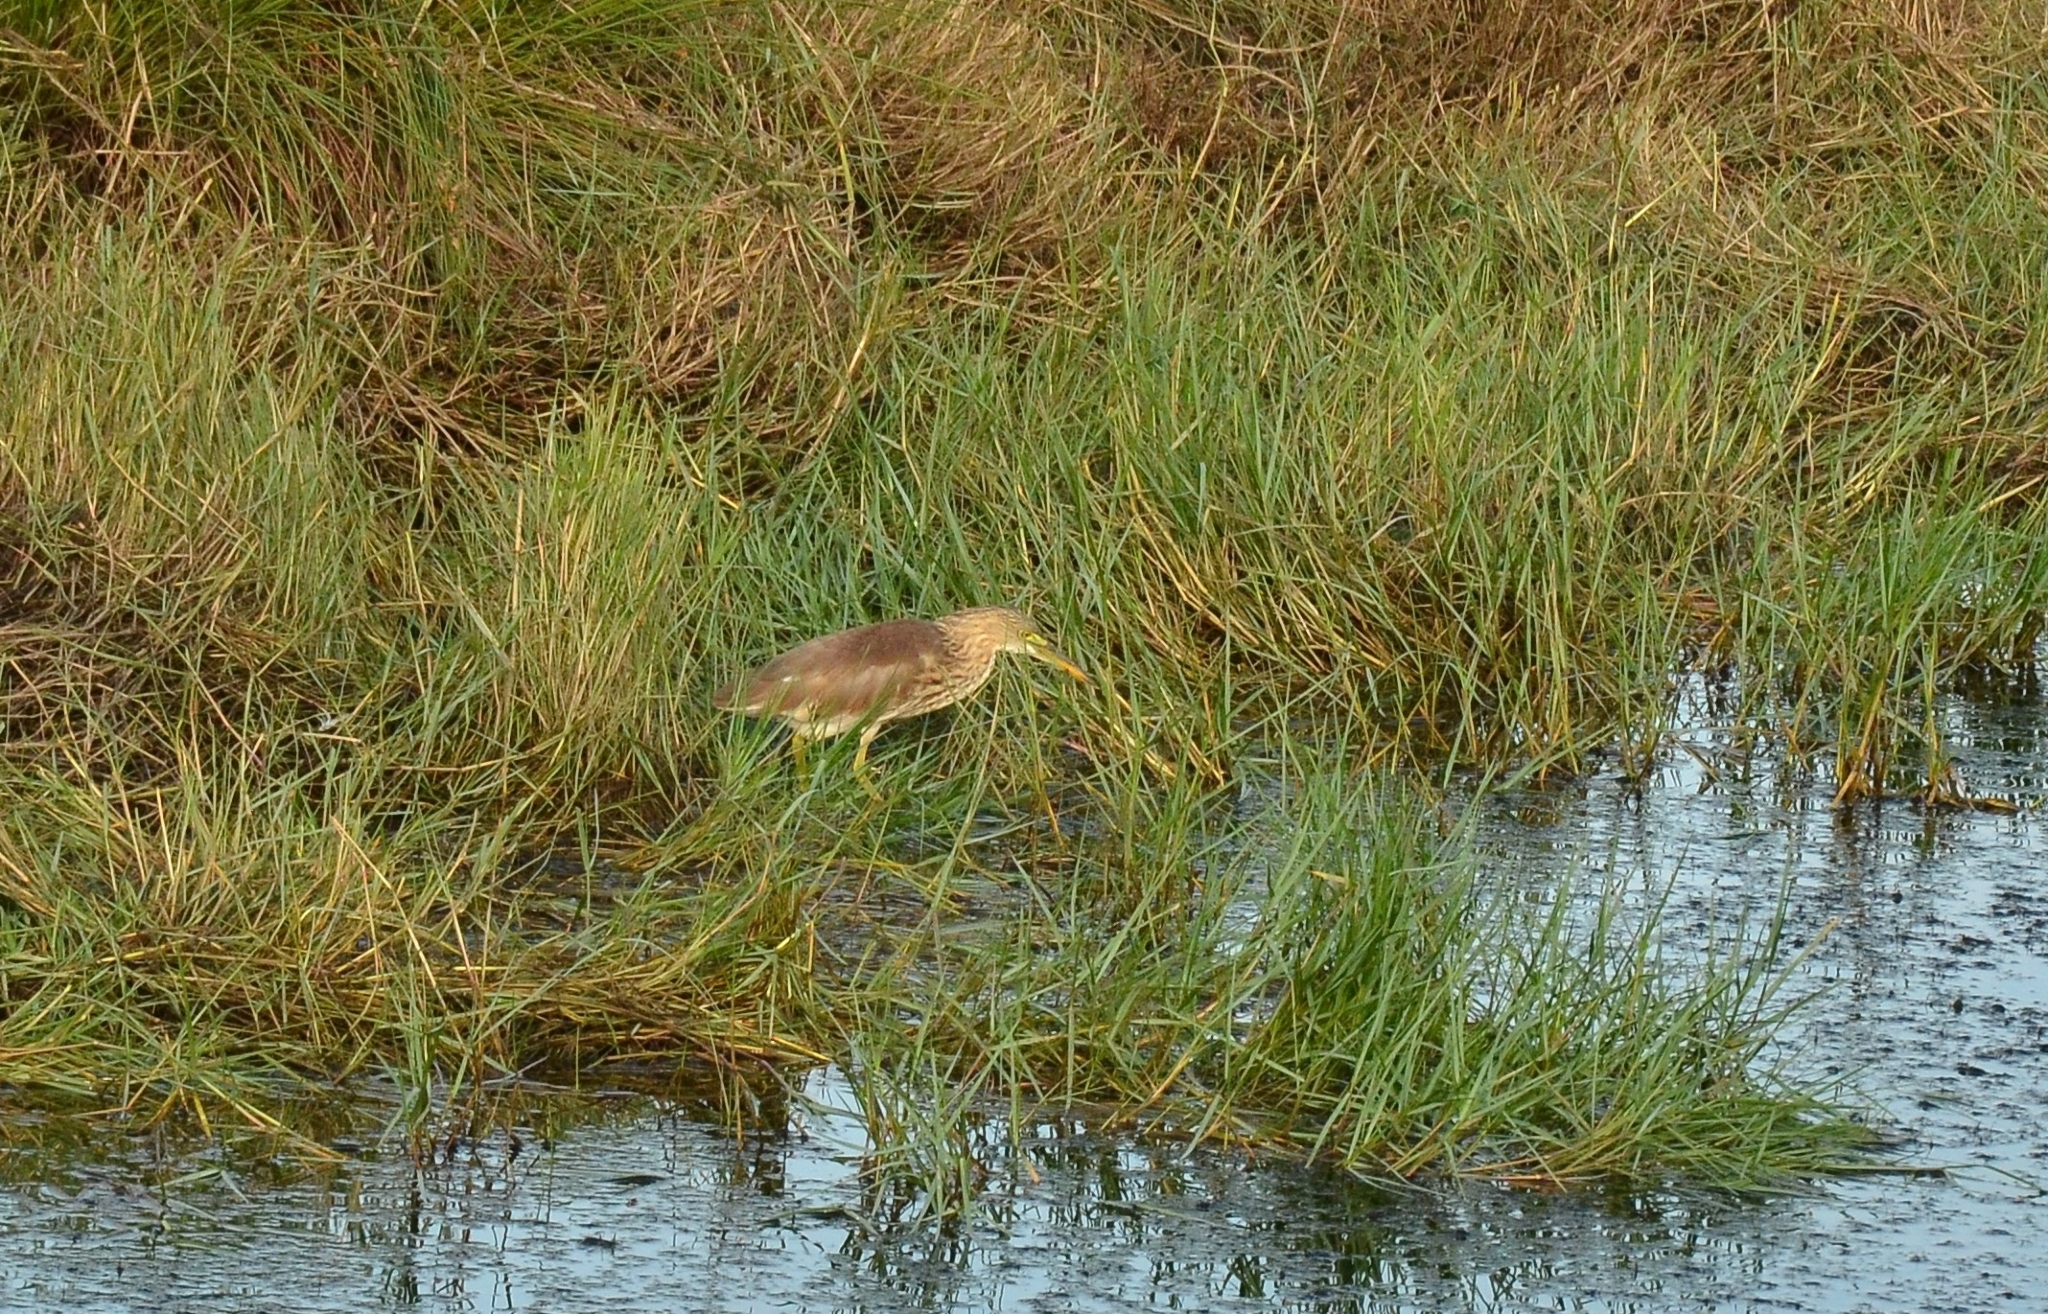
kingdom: Animalia
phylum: Chordata
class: Aves
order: Pelecaniformes
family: Ardeidae
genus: Ardeola
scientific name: Ardeola grayii
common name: Indian pond heron
